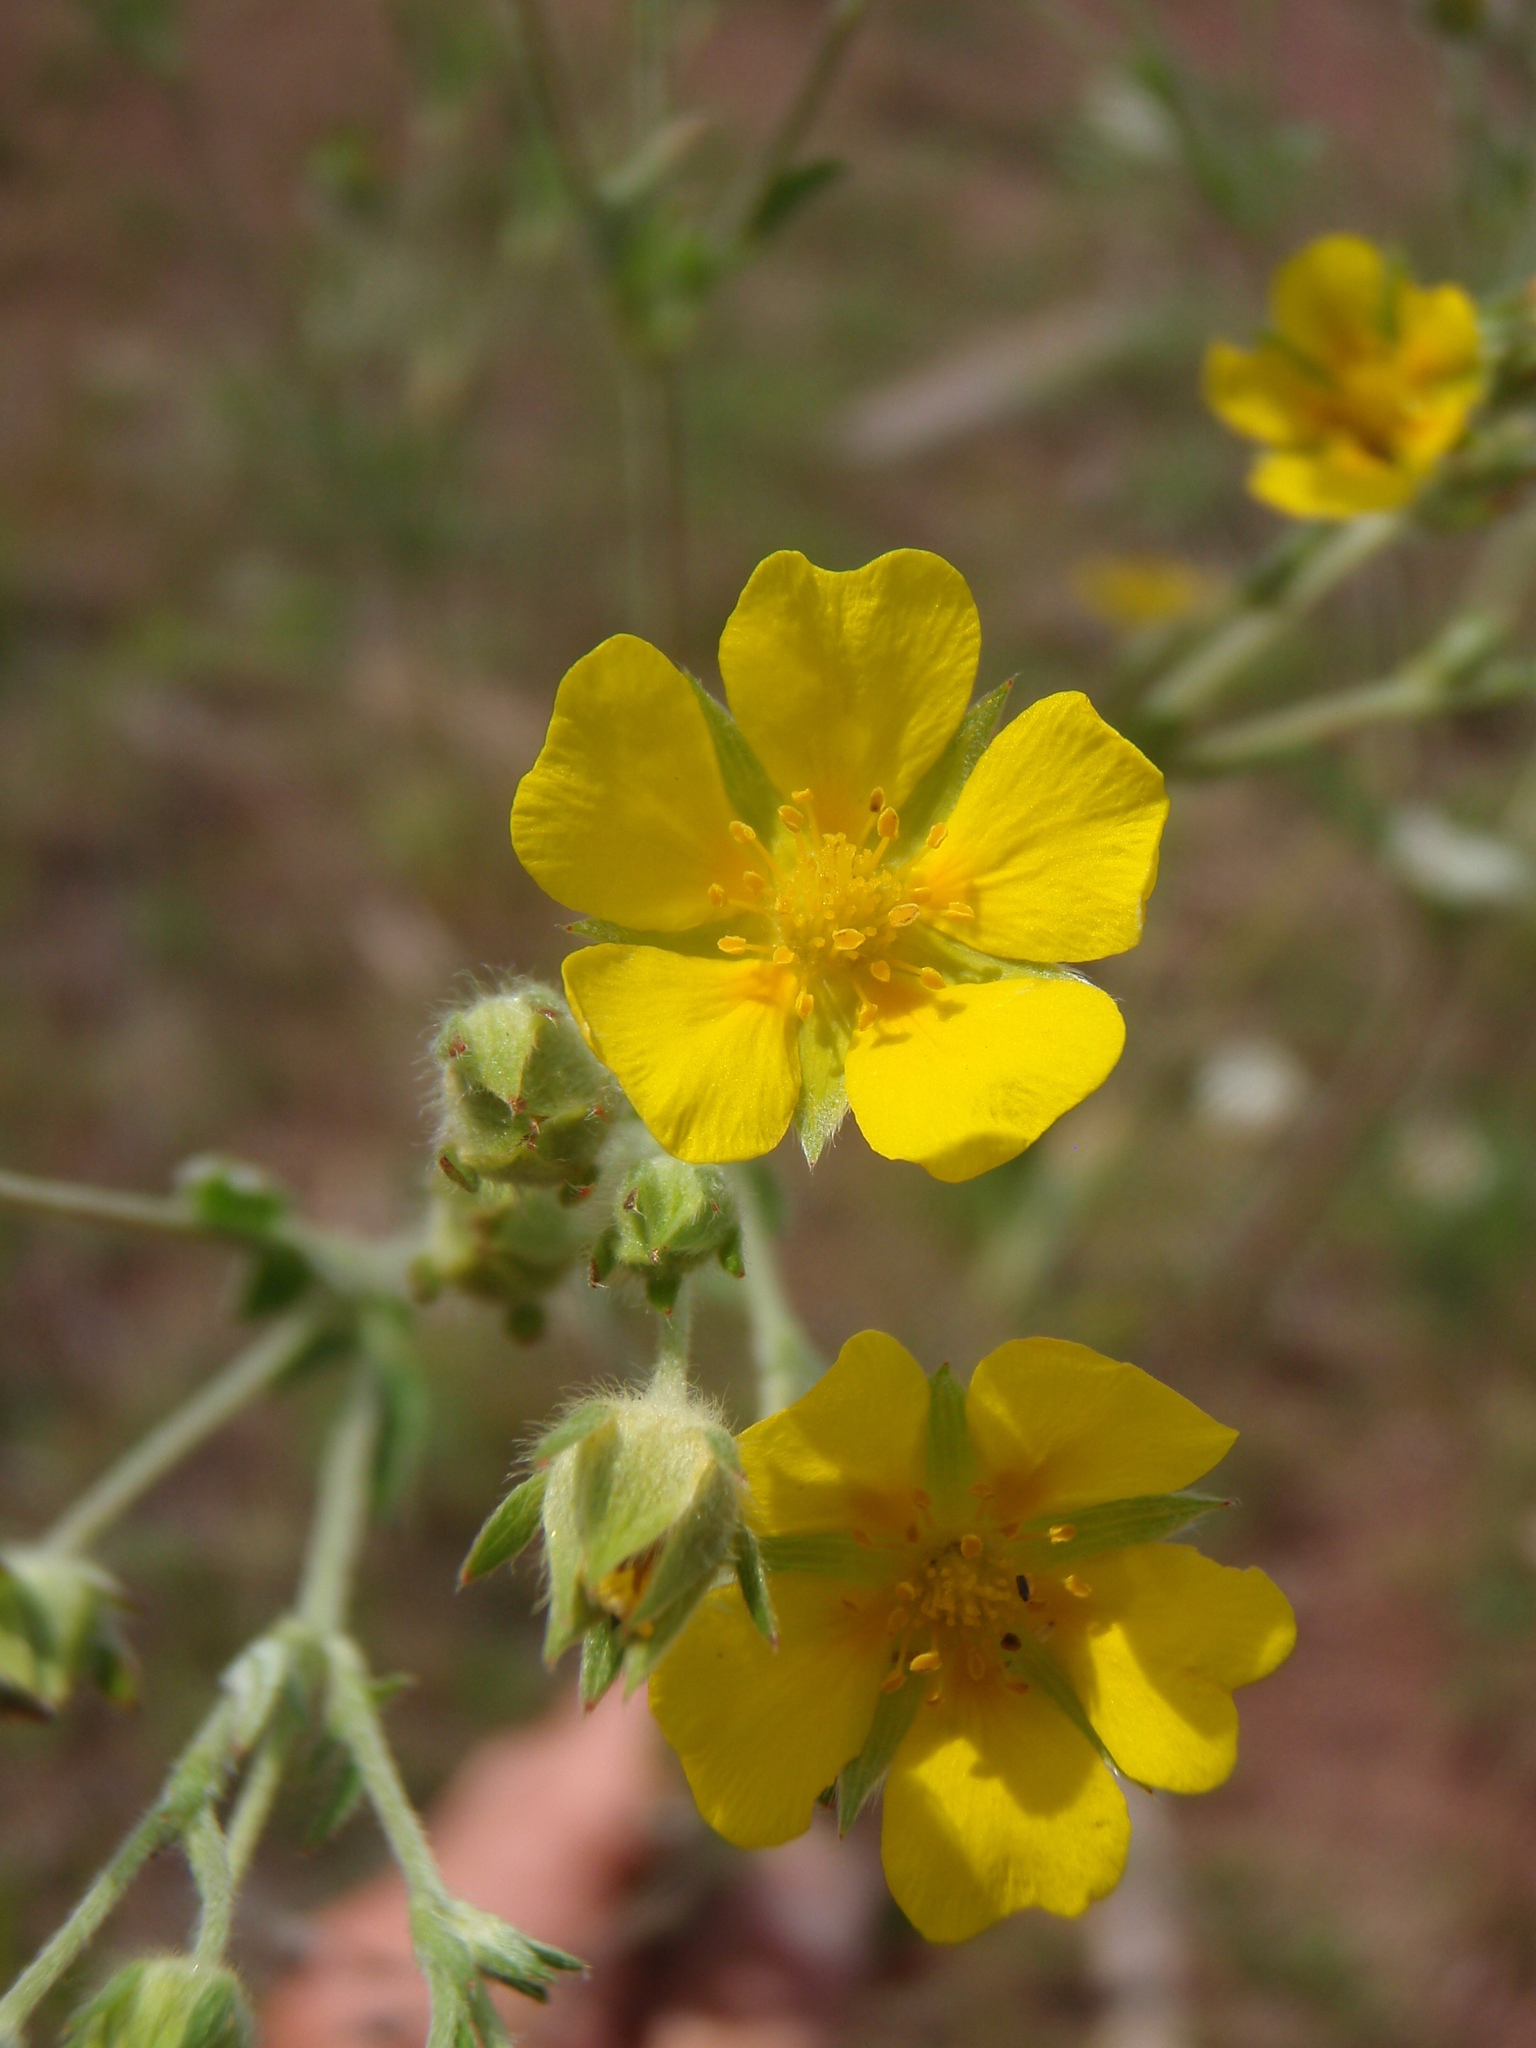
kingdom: Plantae
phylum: Tracheophyta
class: Magnoliopsida
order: Rosales
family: Rosaceae
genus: Potentilla
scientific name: Potentilla pulcherrima
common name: Beautiful cinquefoil
